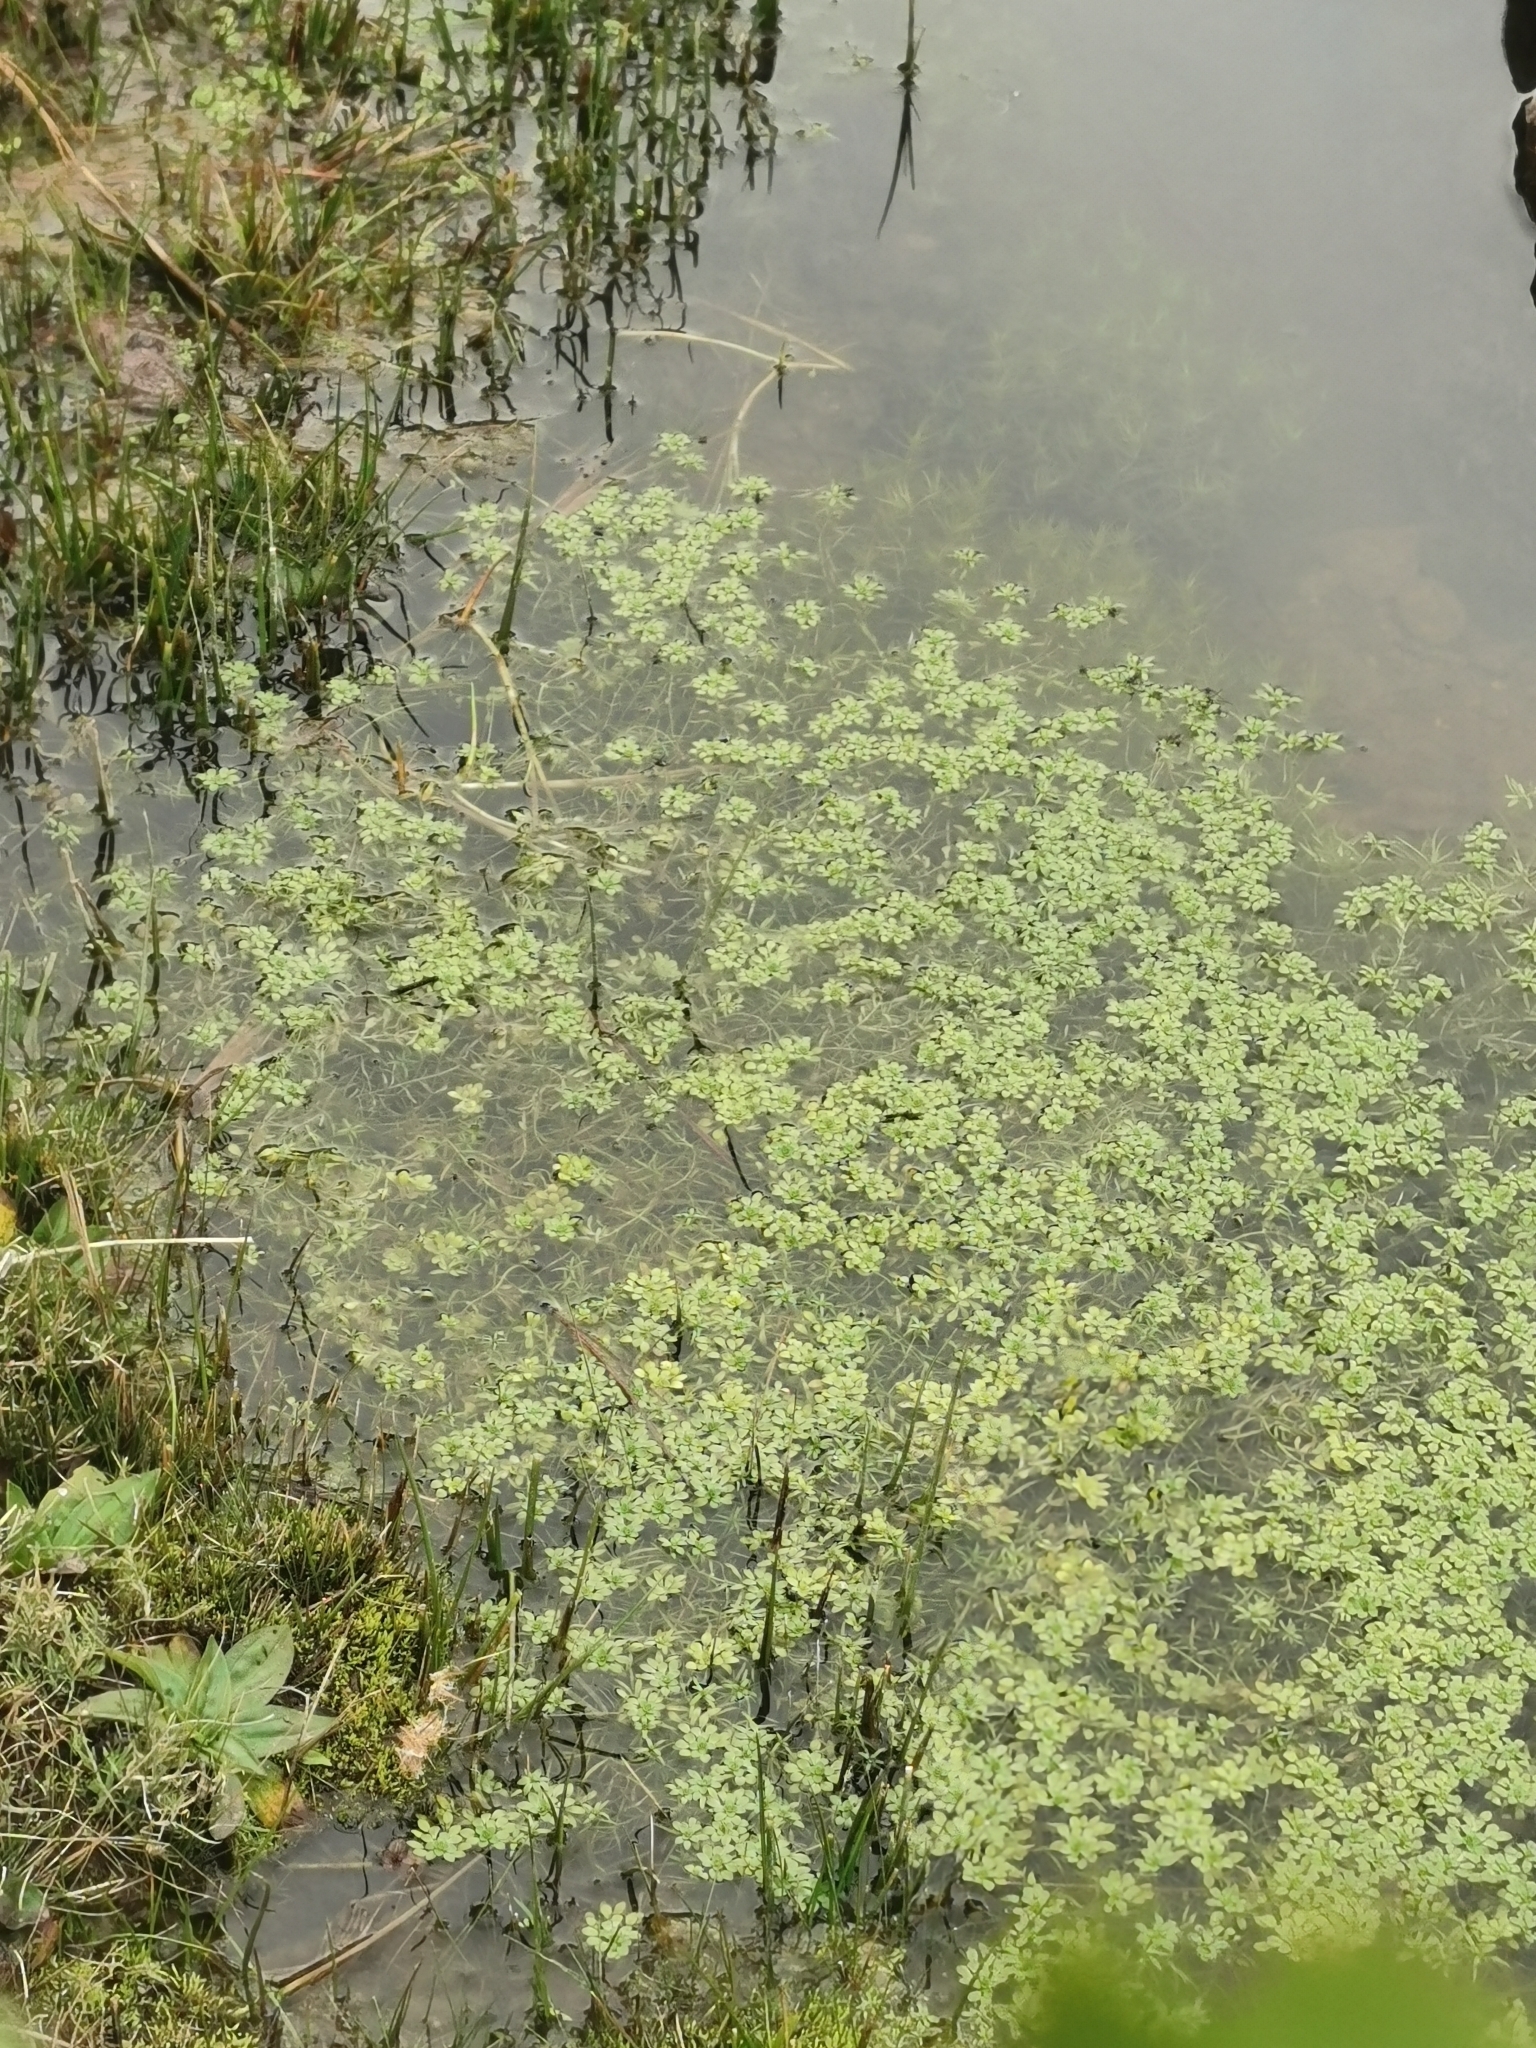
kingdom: Plantae
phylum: Tracheophyta
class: Magnoliopsida
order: Lamiales
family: Plantaginaceae
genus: Callitriche
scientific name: Callitriche heterophylla
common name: Two-headed water-starwort
